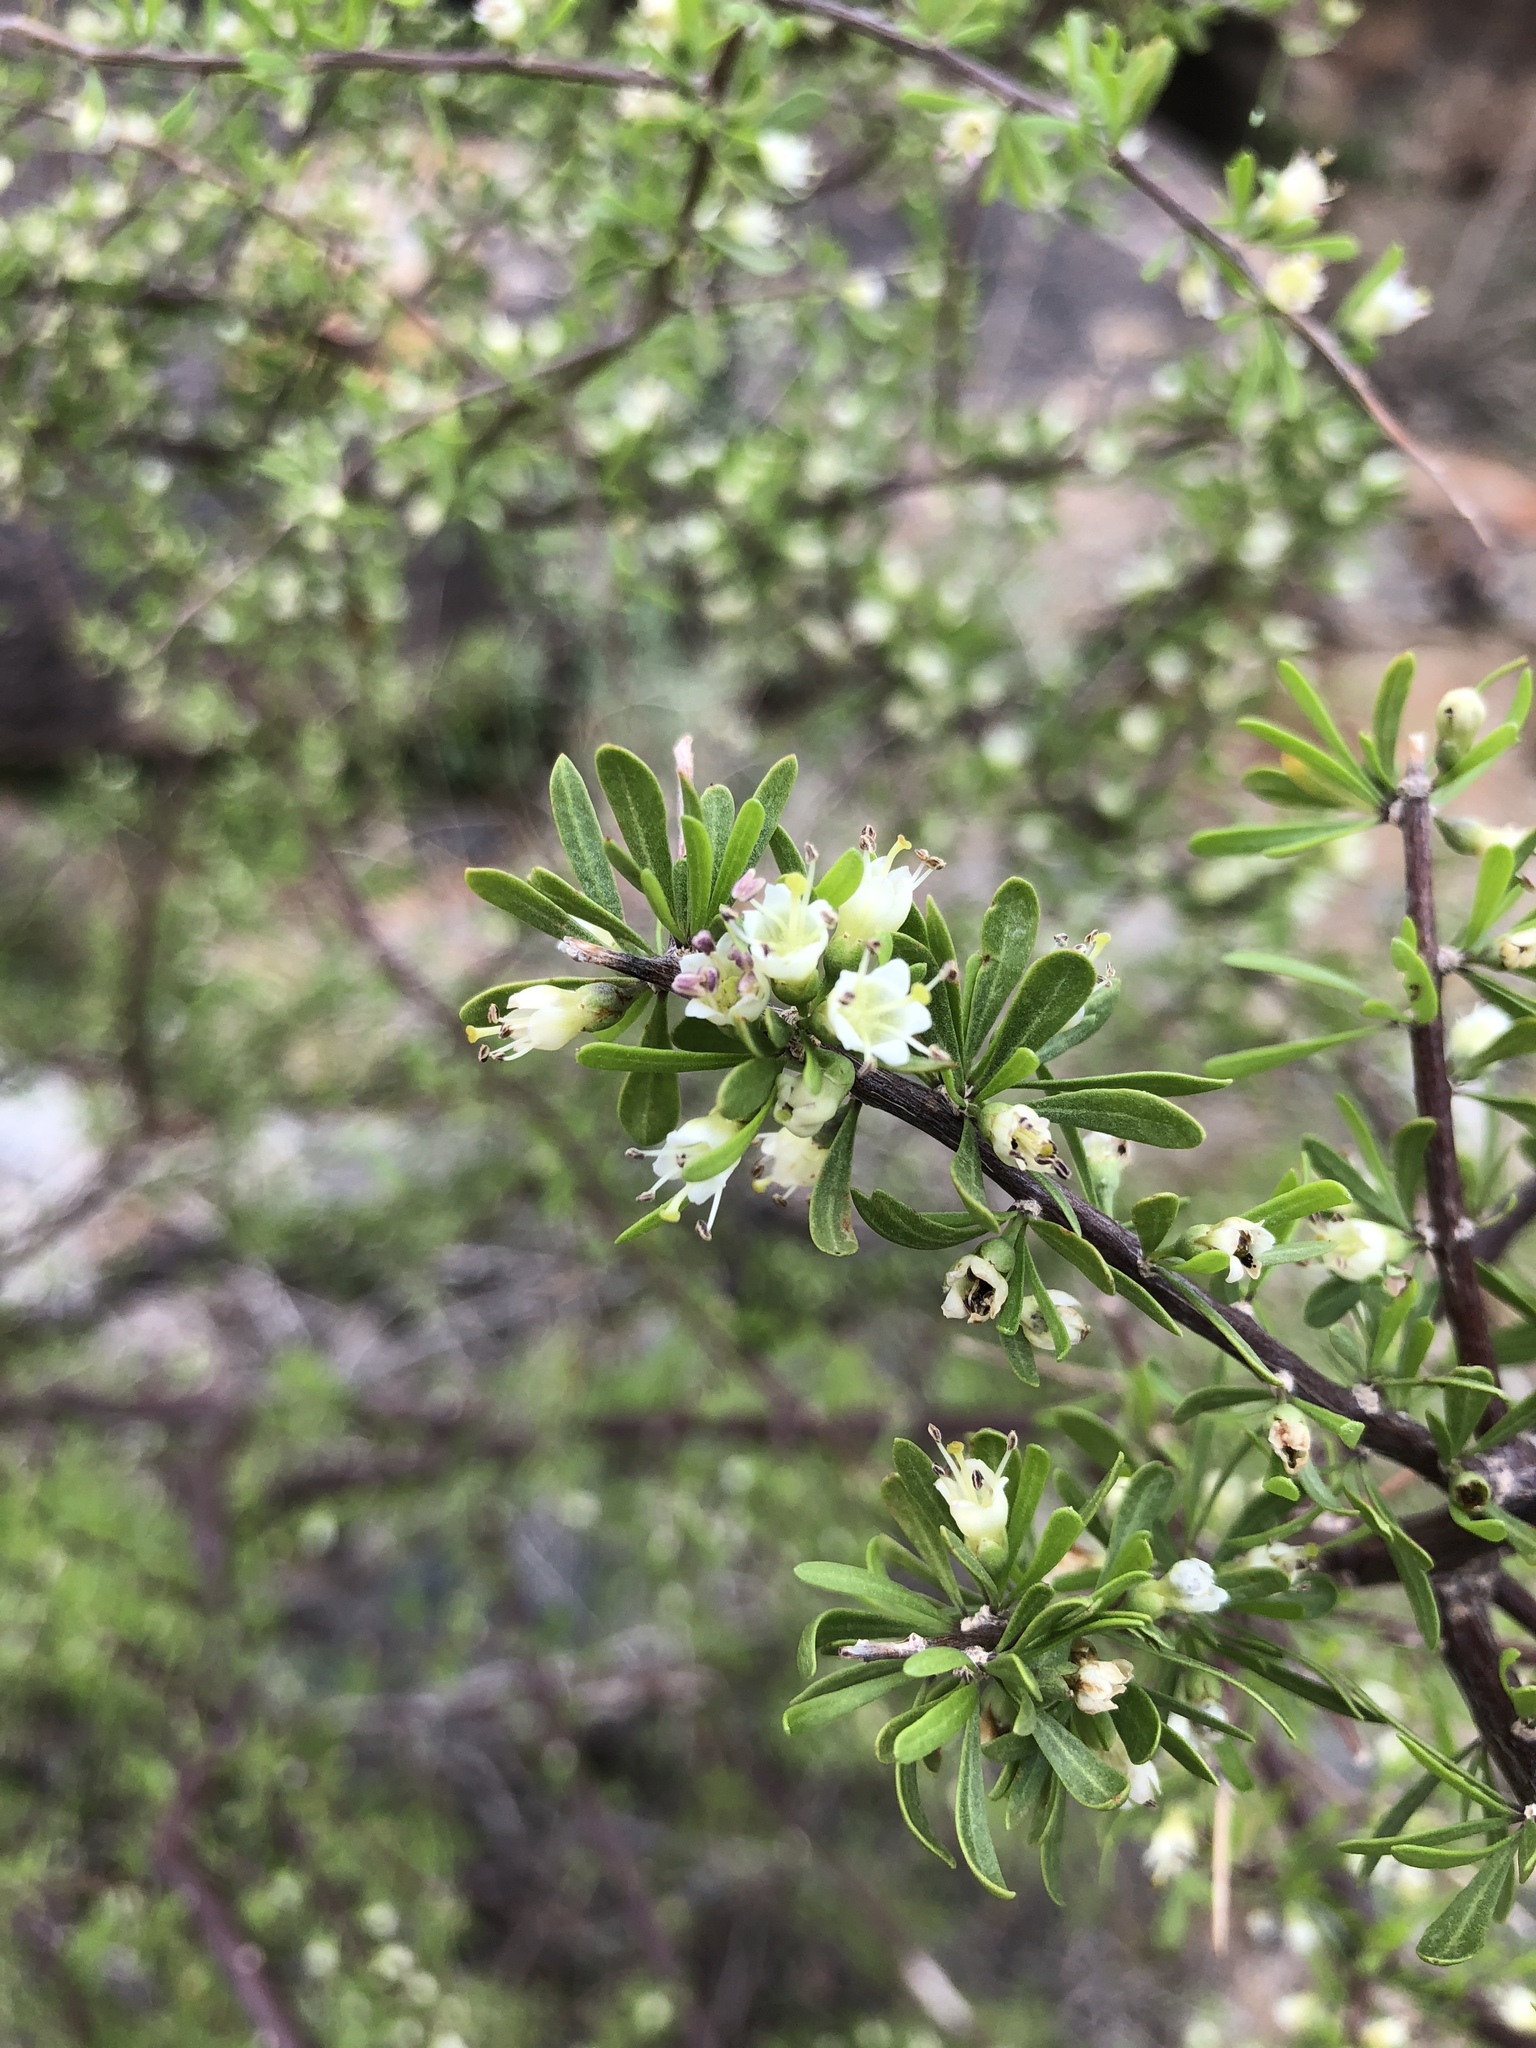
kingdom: Plantae
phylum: Tracheophyta
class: Magnoliopsida
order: Solanales
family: Solanaceae
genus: Lycium
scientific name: Lycium berlandieri
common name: Berlandier wolfberry
